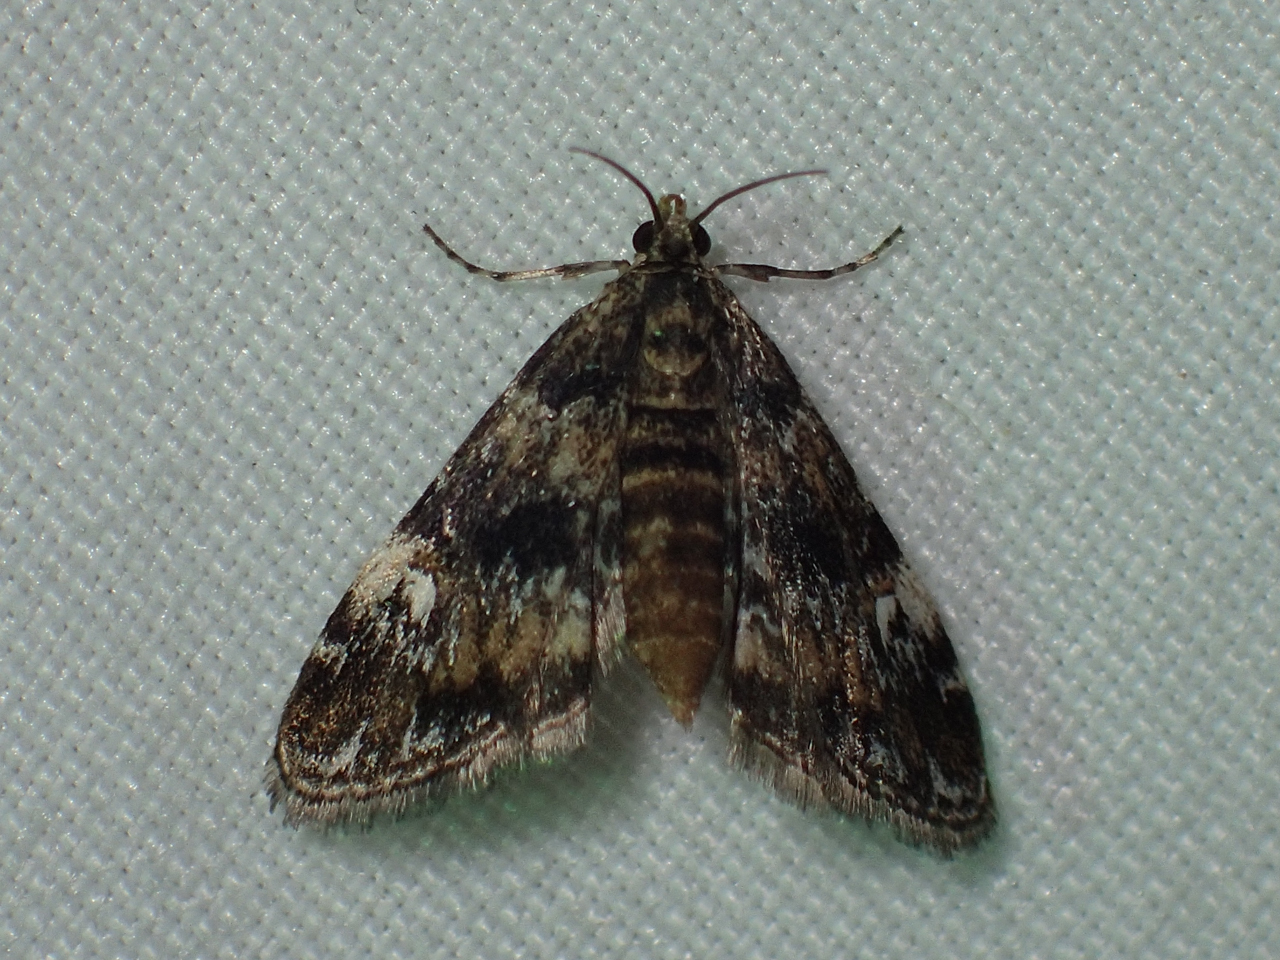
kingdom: Animalia
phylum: Arthropoda
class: Insecta
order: Lepidoptera
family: Crambidae
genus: Elophila
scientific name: Elophila obliteralis
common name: Waterlily leafcutter moth
